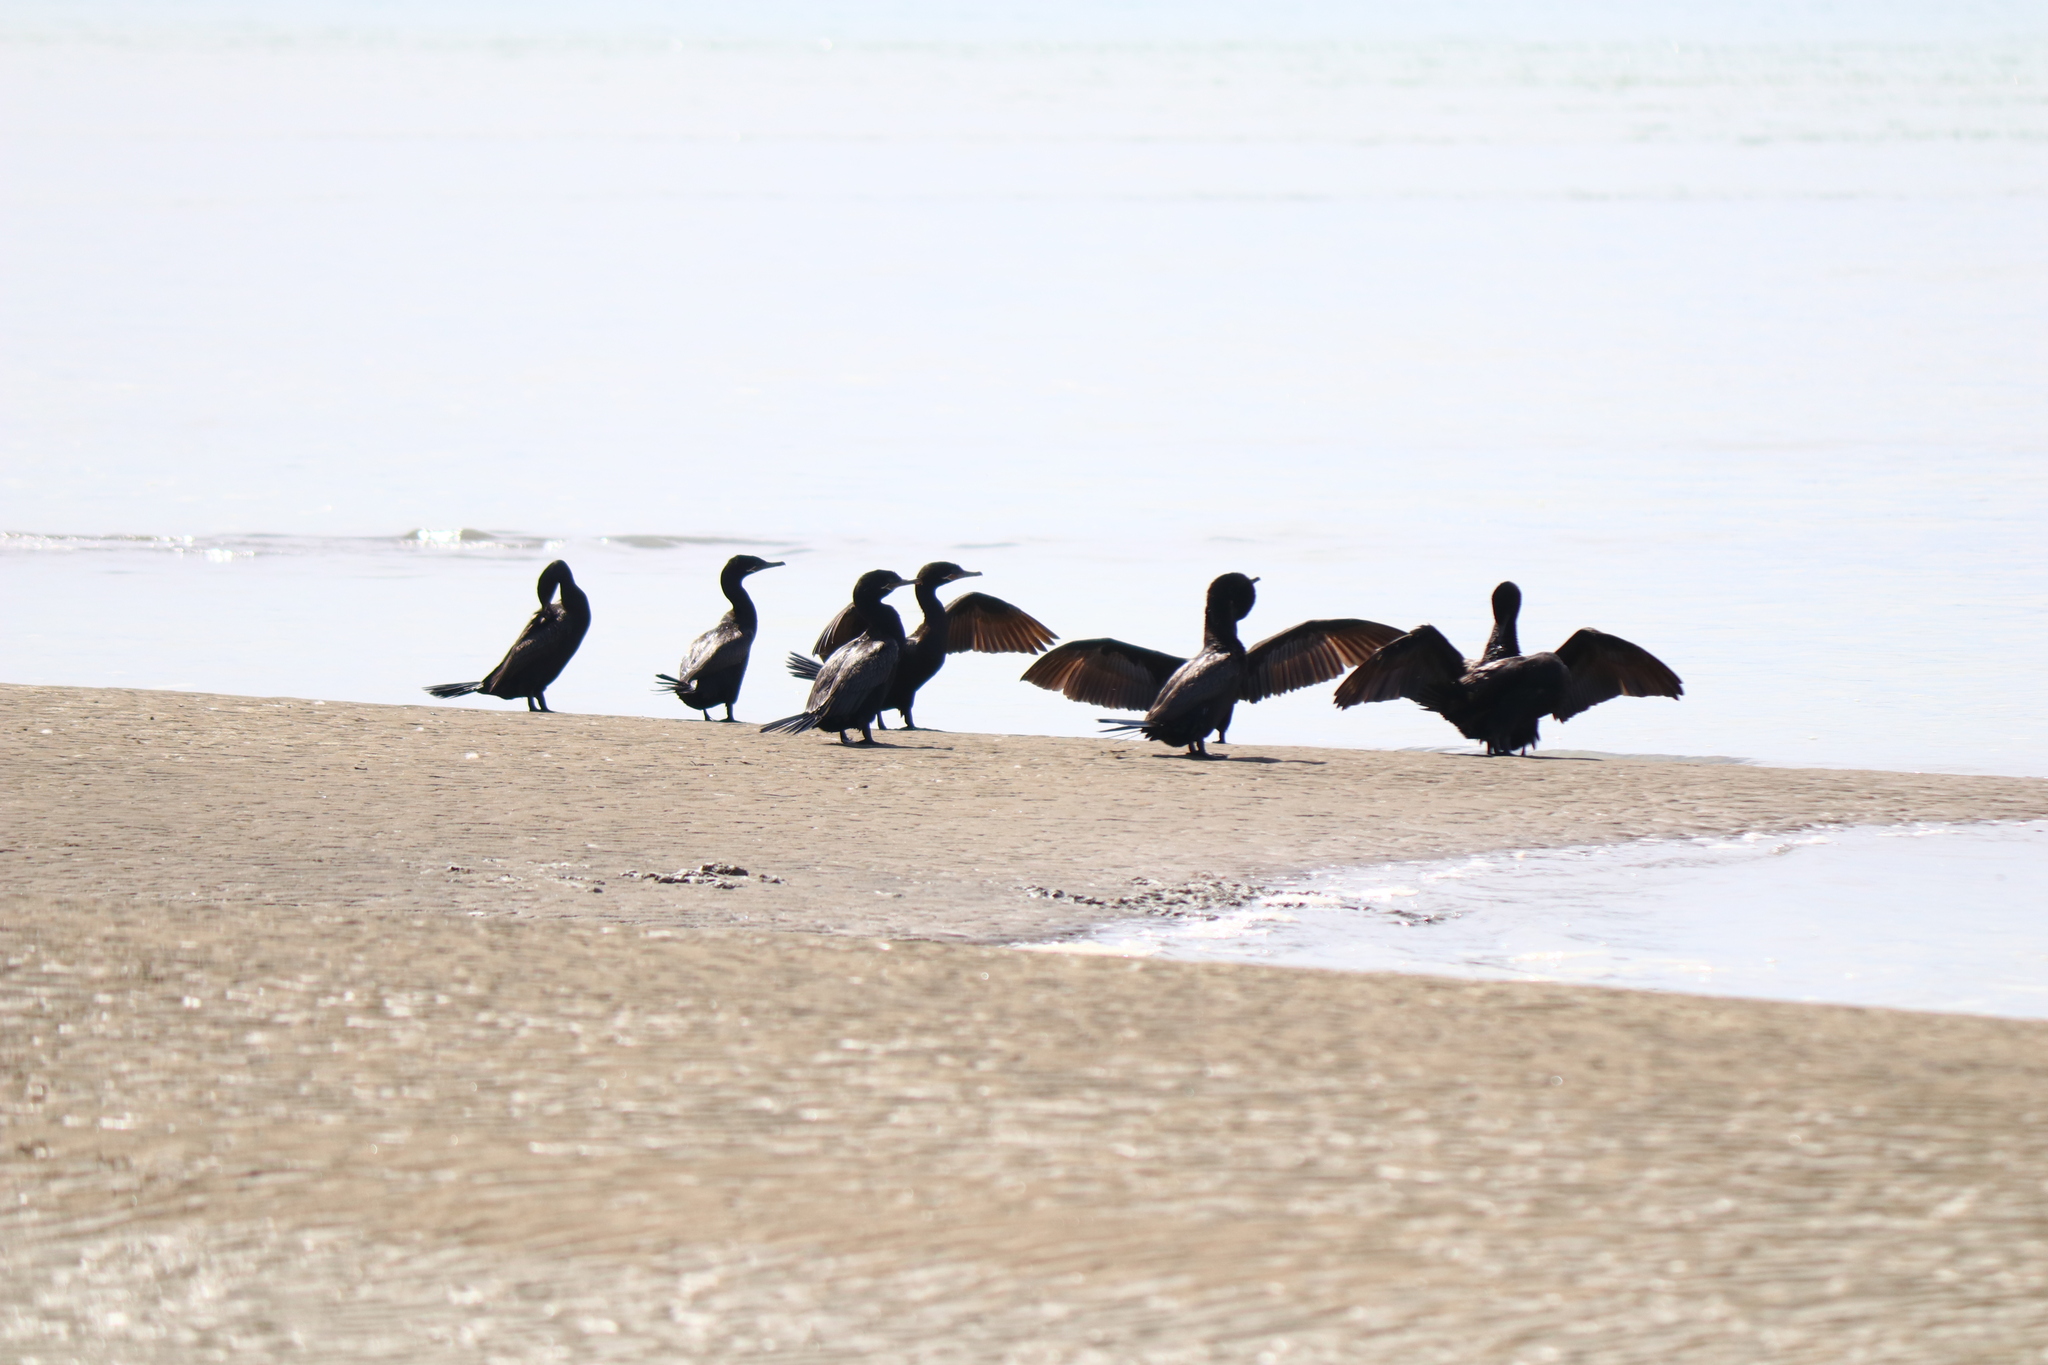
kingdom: Animalia
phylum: Chordata
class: Aves
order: Suliformes
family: Phalacrocoracidae
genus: Phalacrocorax
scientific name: Phalacrocorax brasilianus
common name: Neotropic cormorant
